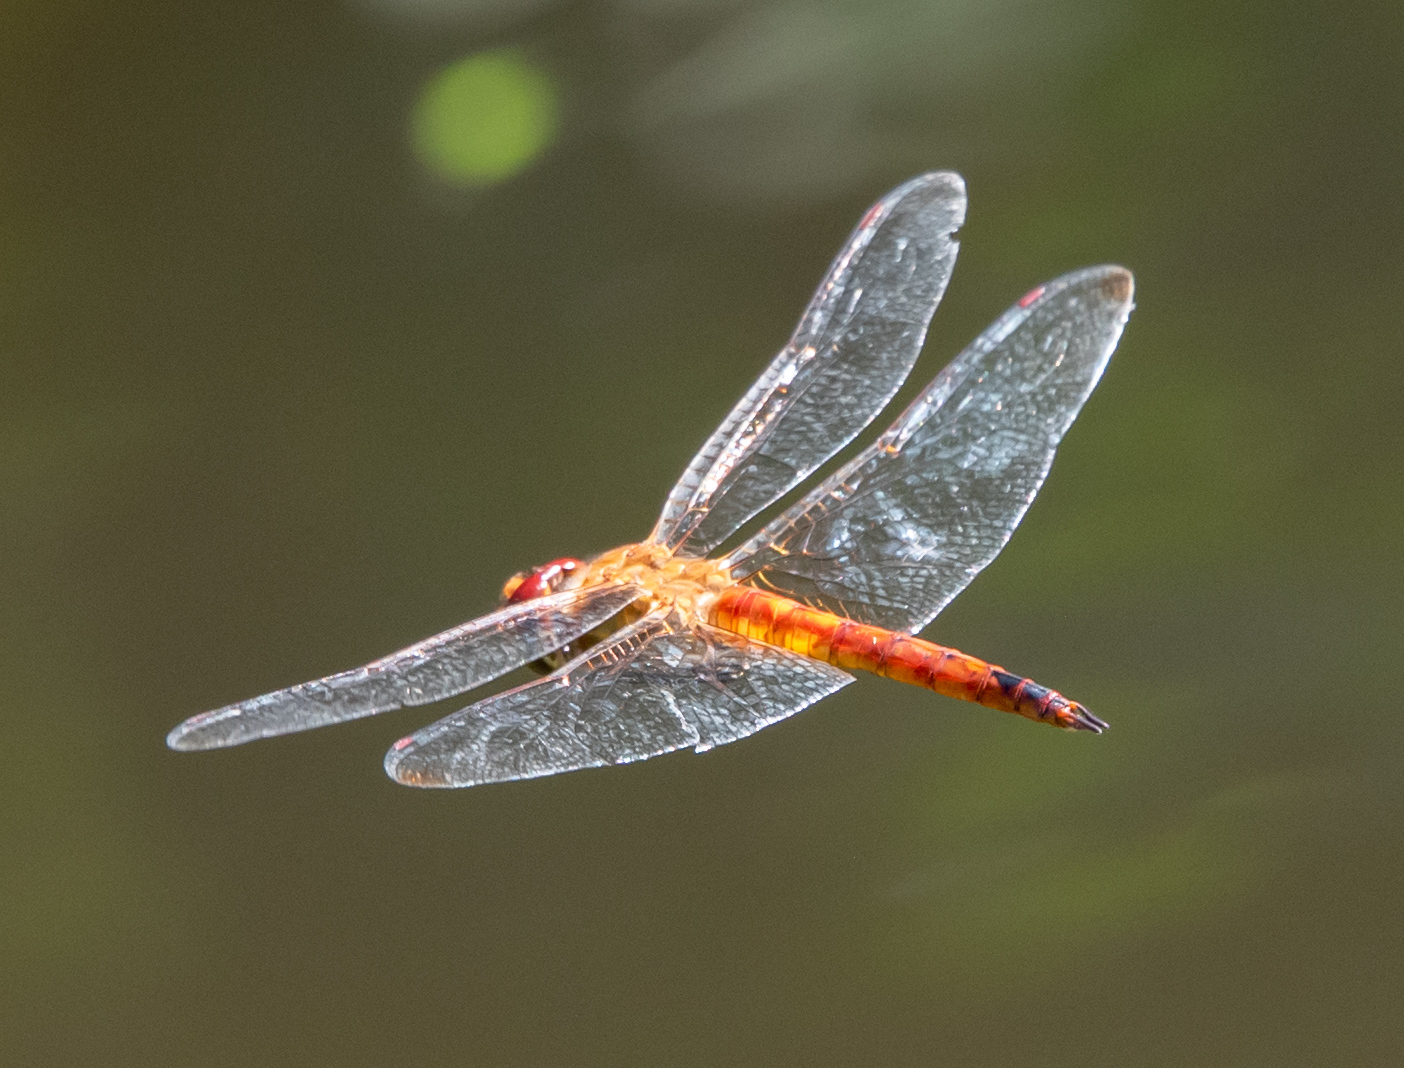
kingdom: Animalia
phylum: Arthropoda
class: Insecta
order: Odonata
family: Libellulidae
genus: Pantala
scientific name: Pantala flavescens
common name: Wandering glider
